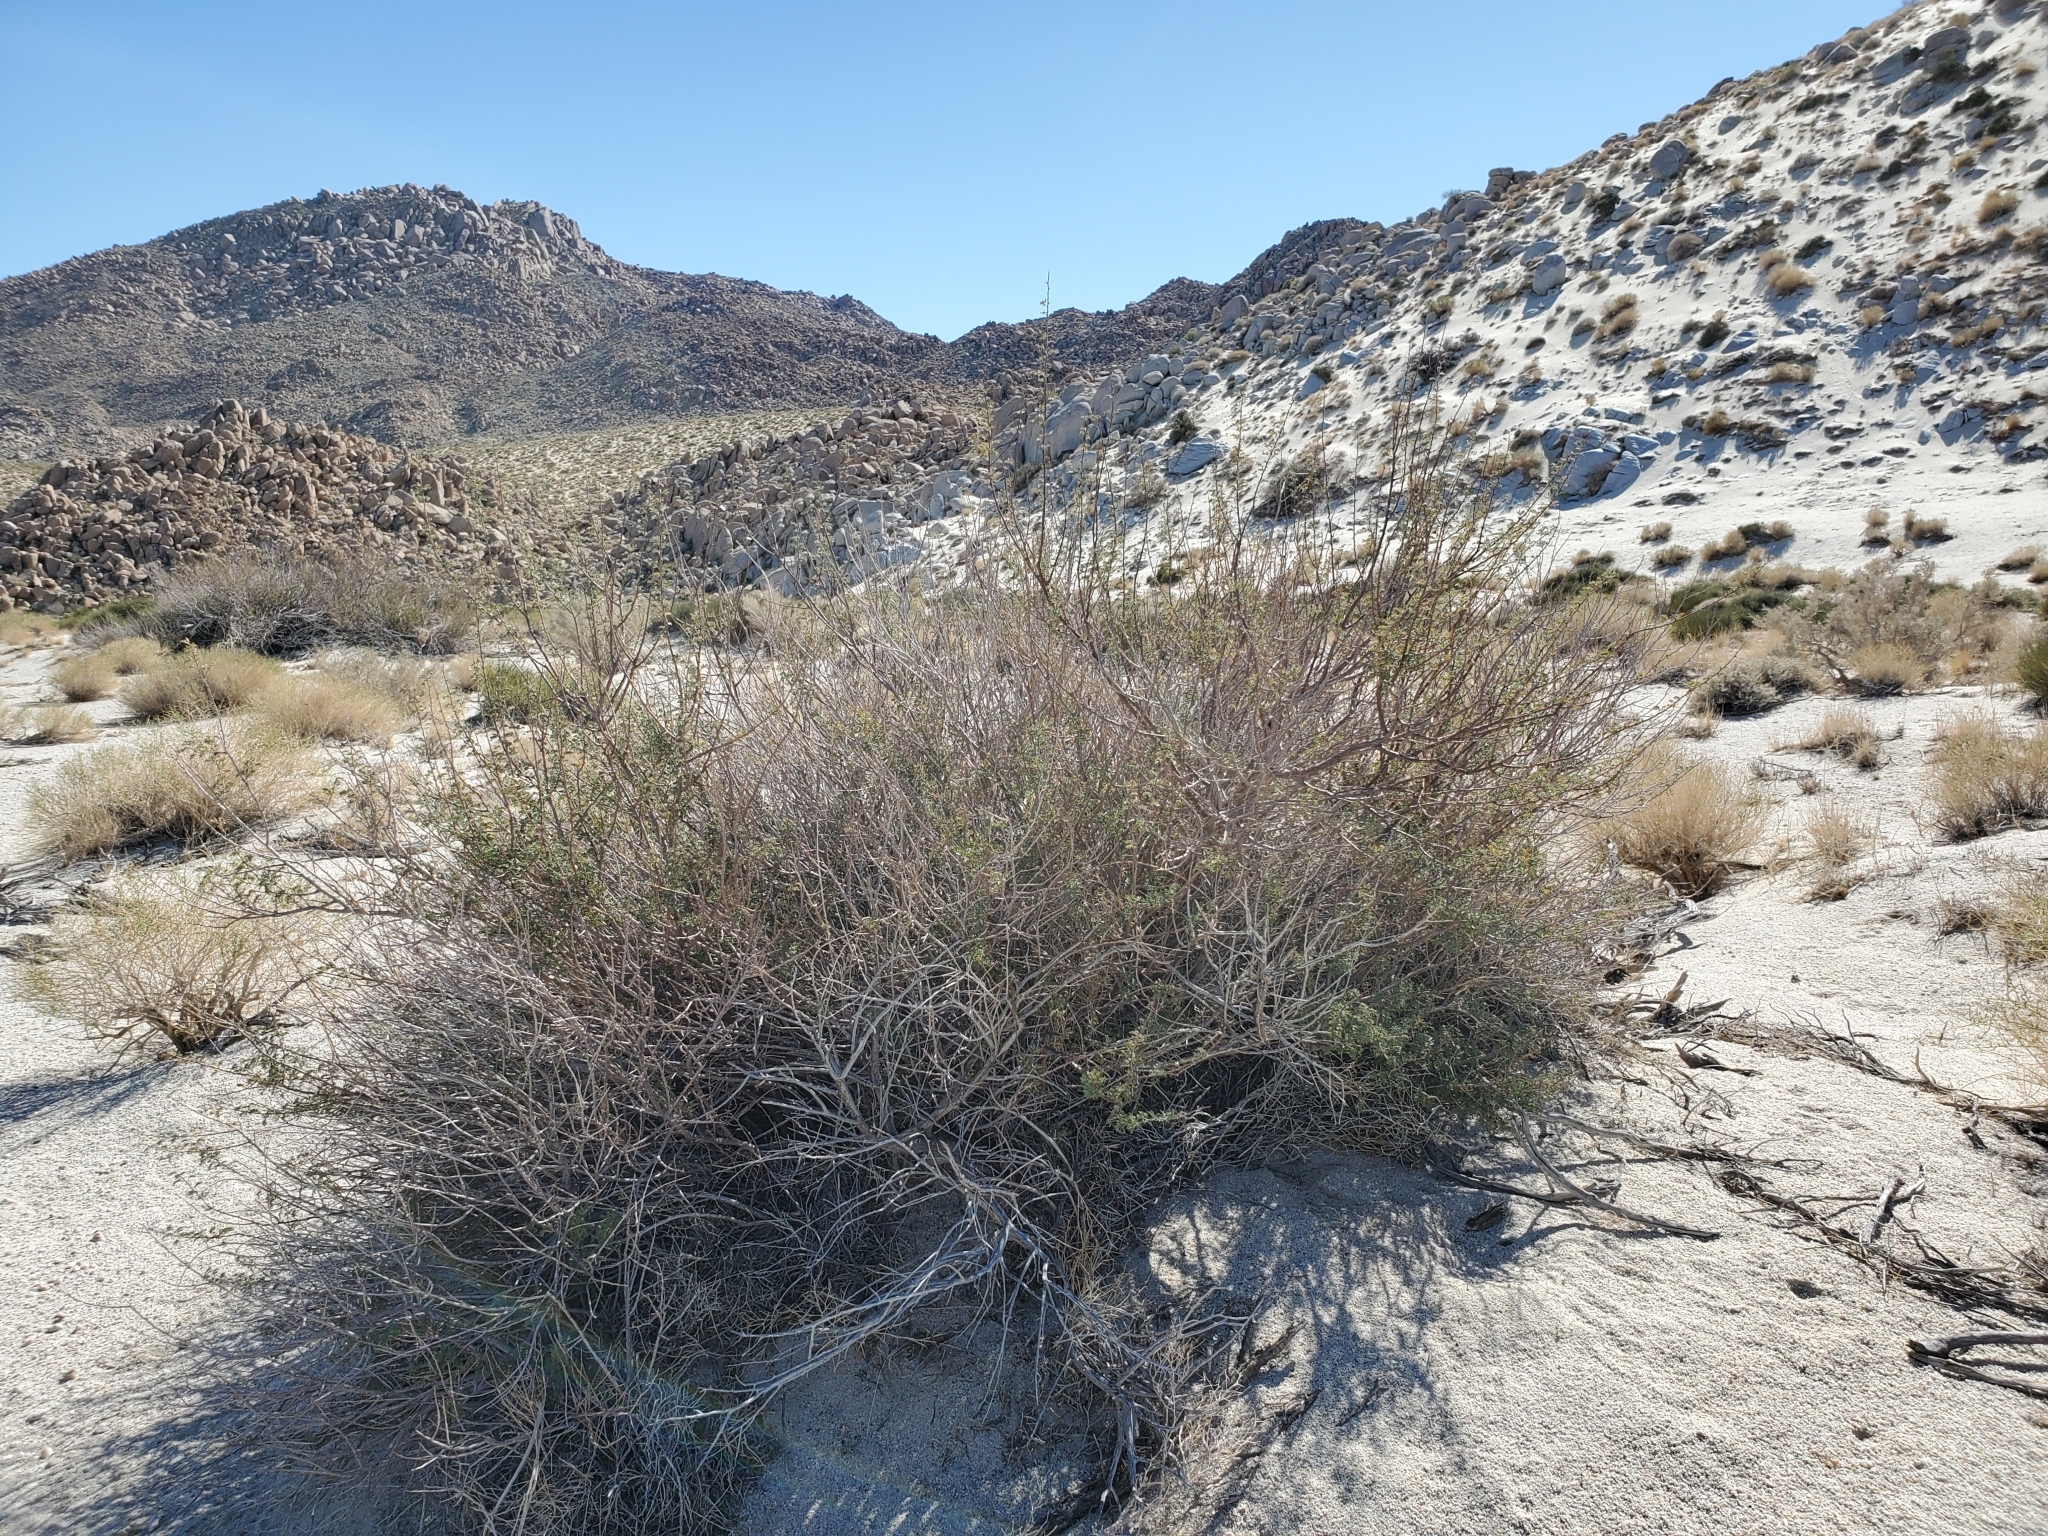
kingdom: Plantae
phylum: Tracheophyta
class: Magnoliopsida
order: Fabales
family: Fabaceae
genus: Senegalia
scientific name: Senegalia greggii
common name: Texas-mimosa
